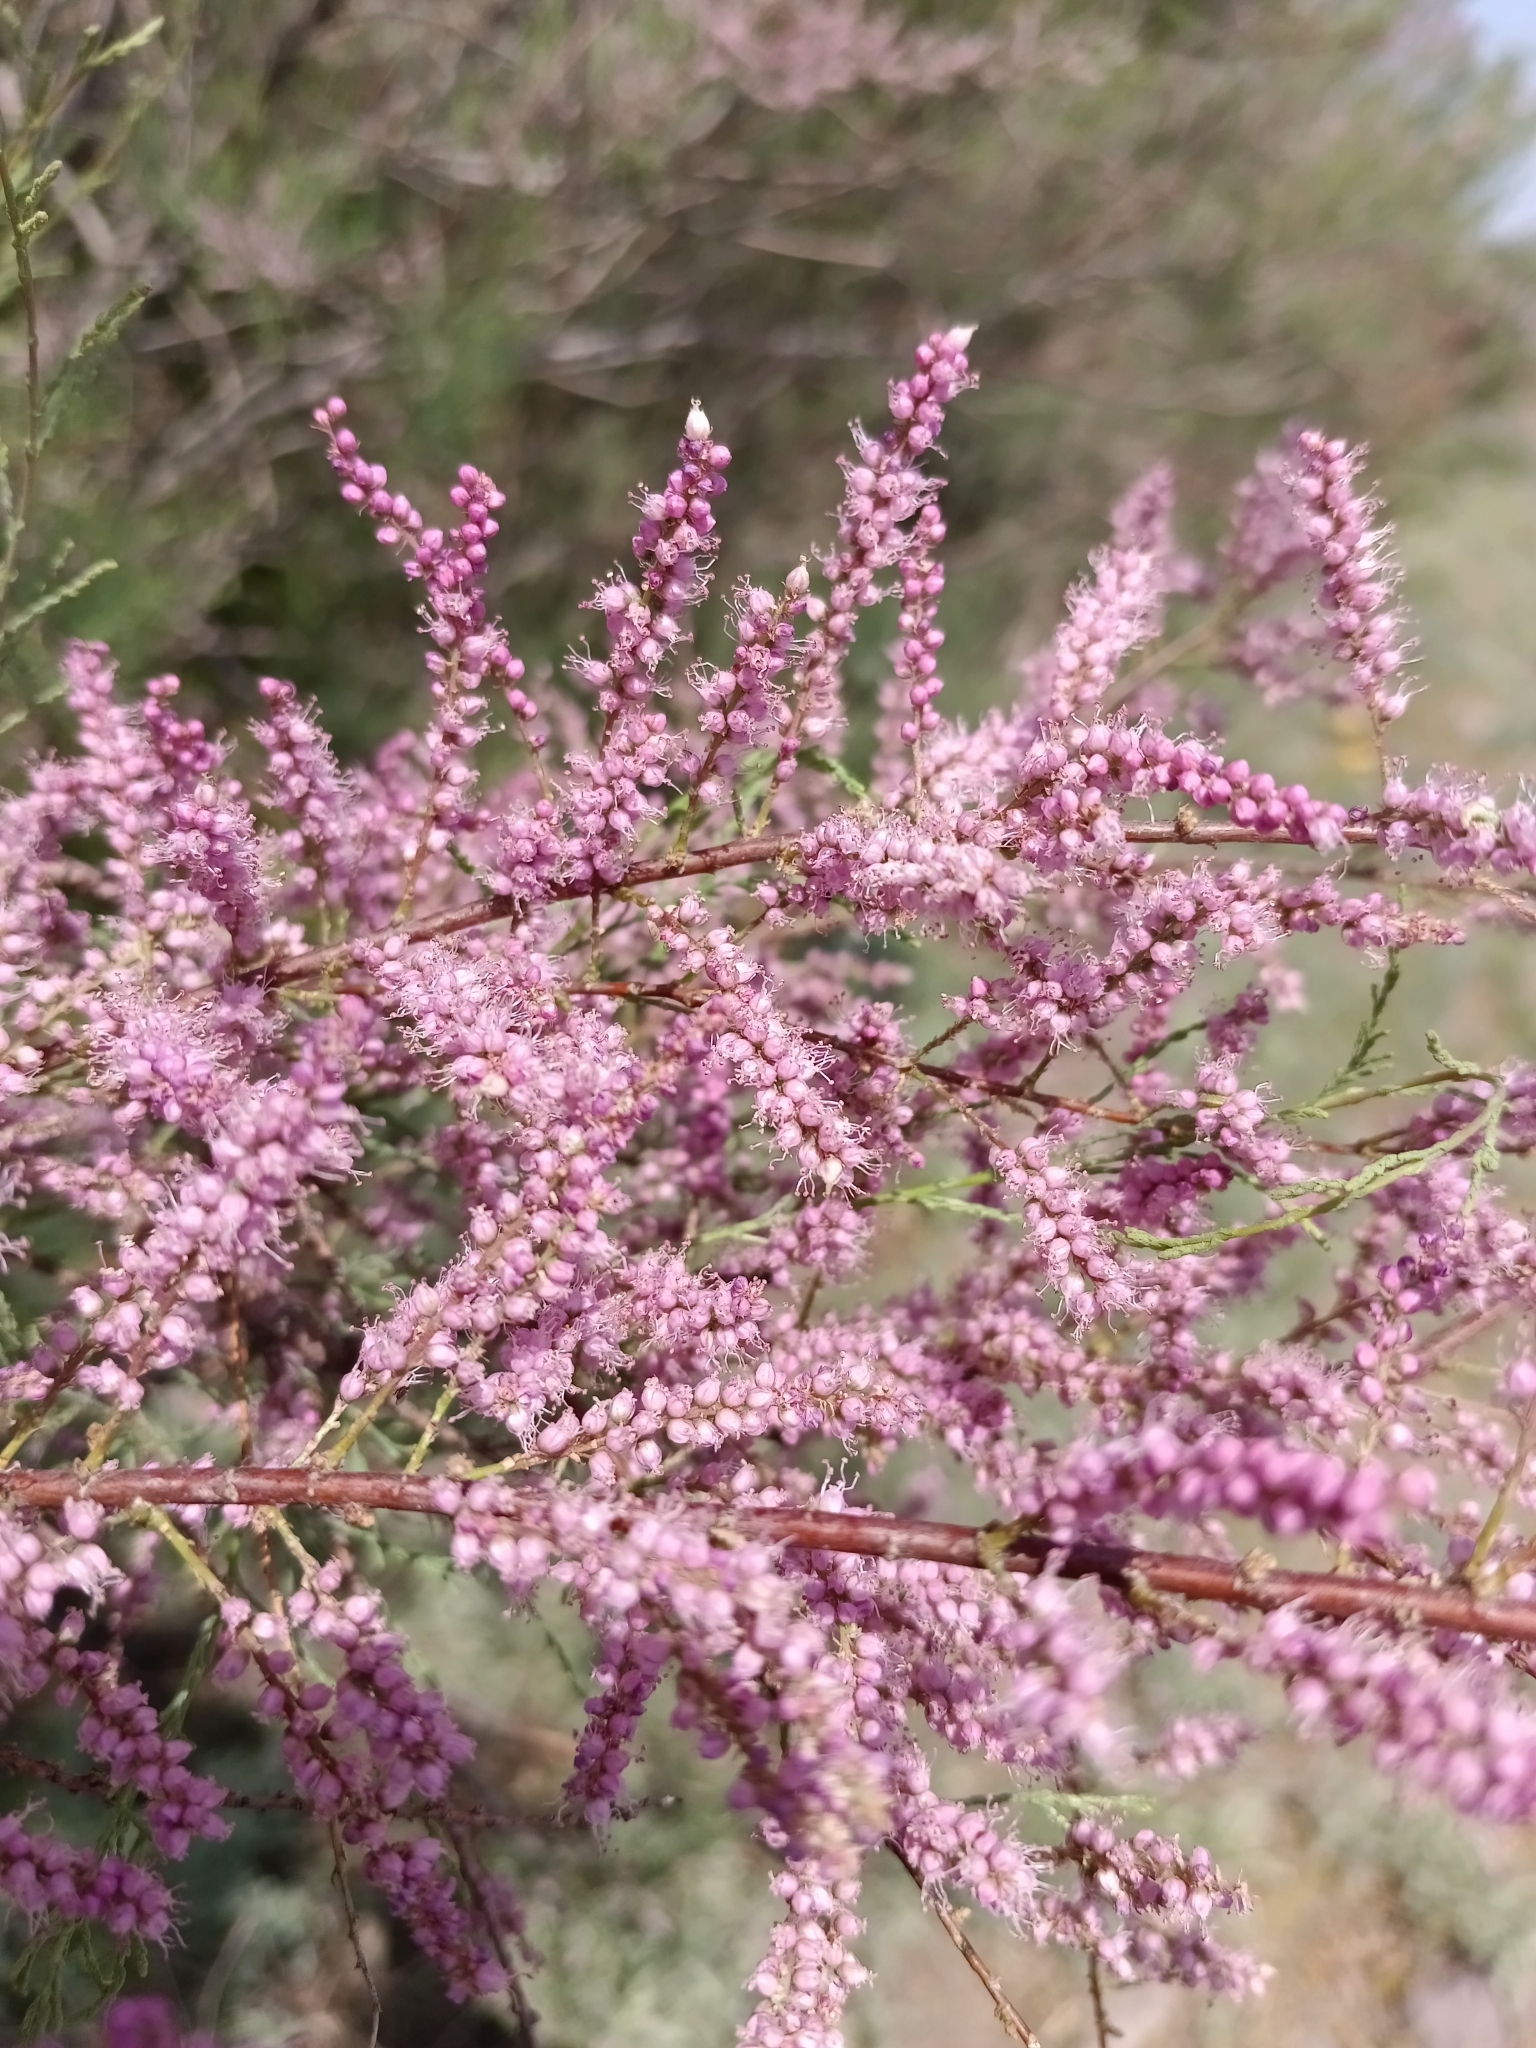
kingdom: Plantae
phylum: Tracheophyta
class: Magnoliopsida
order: Caryophyllales
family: Tamaricaceae
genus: Tamarix
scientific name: Tamarix ramosissima
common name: Pink tamarisk
